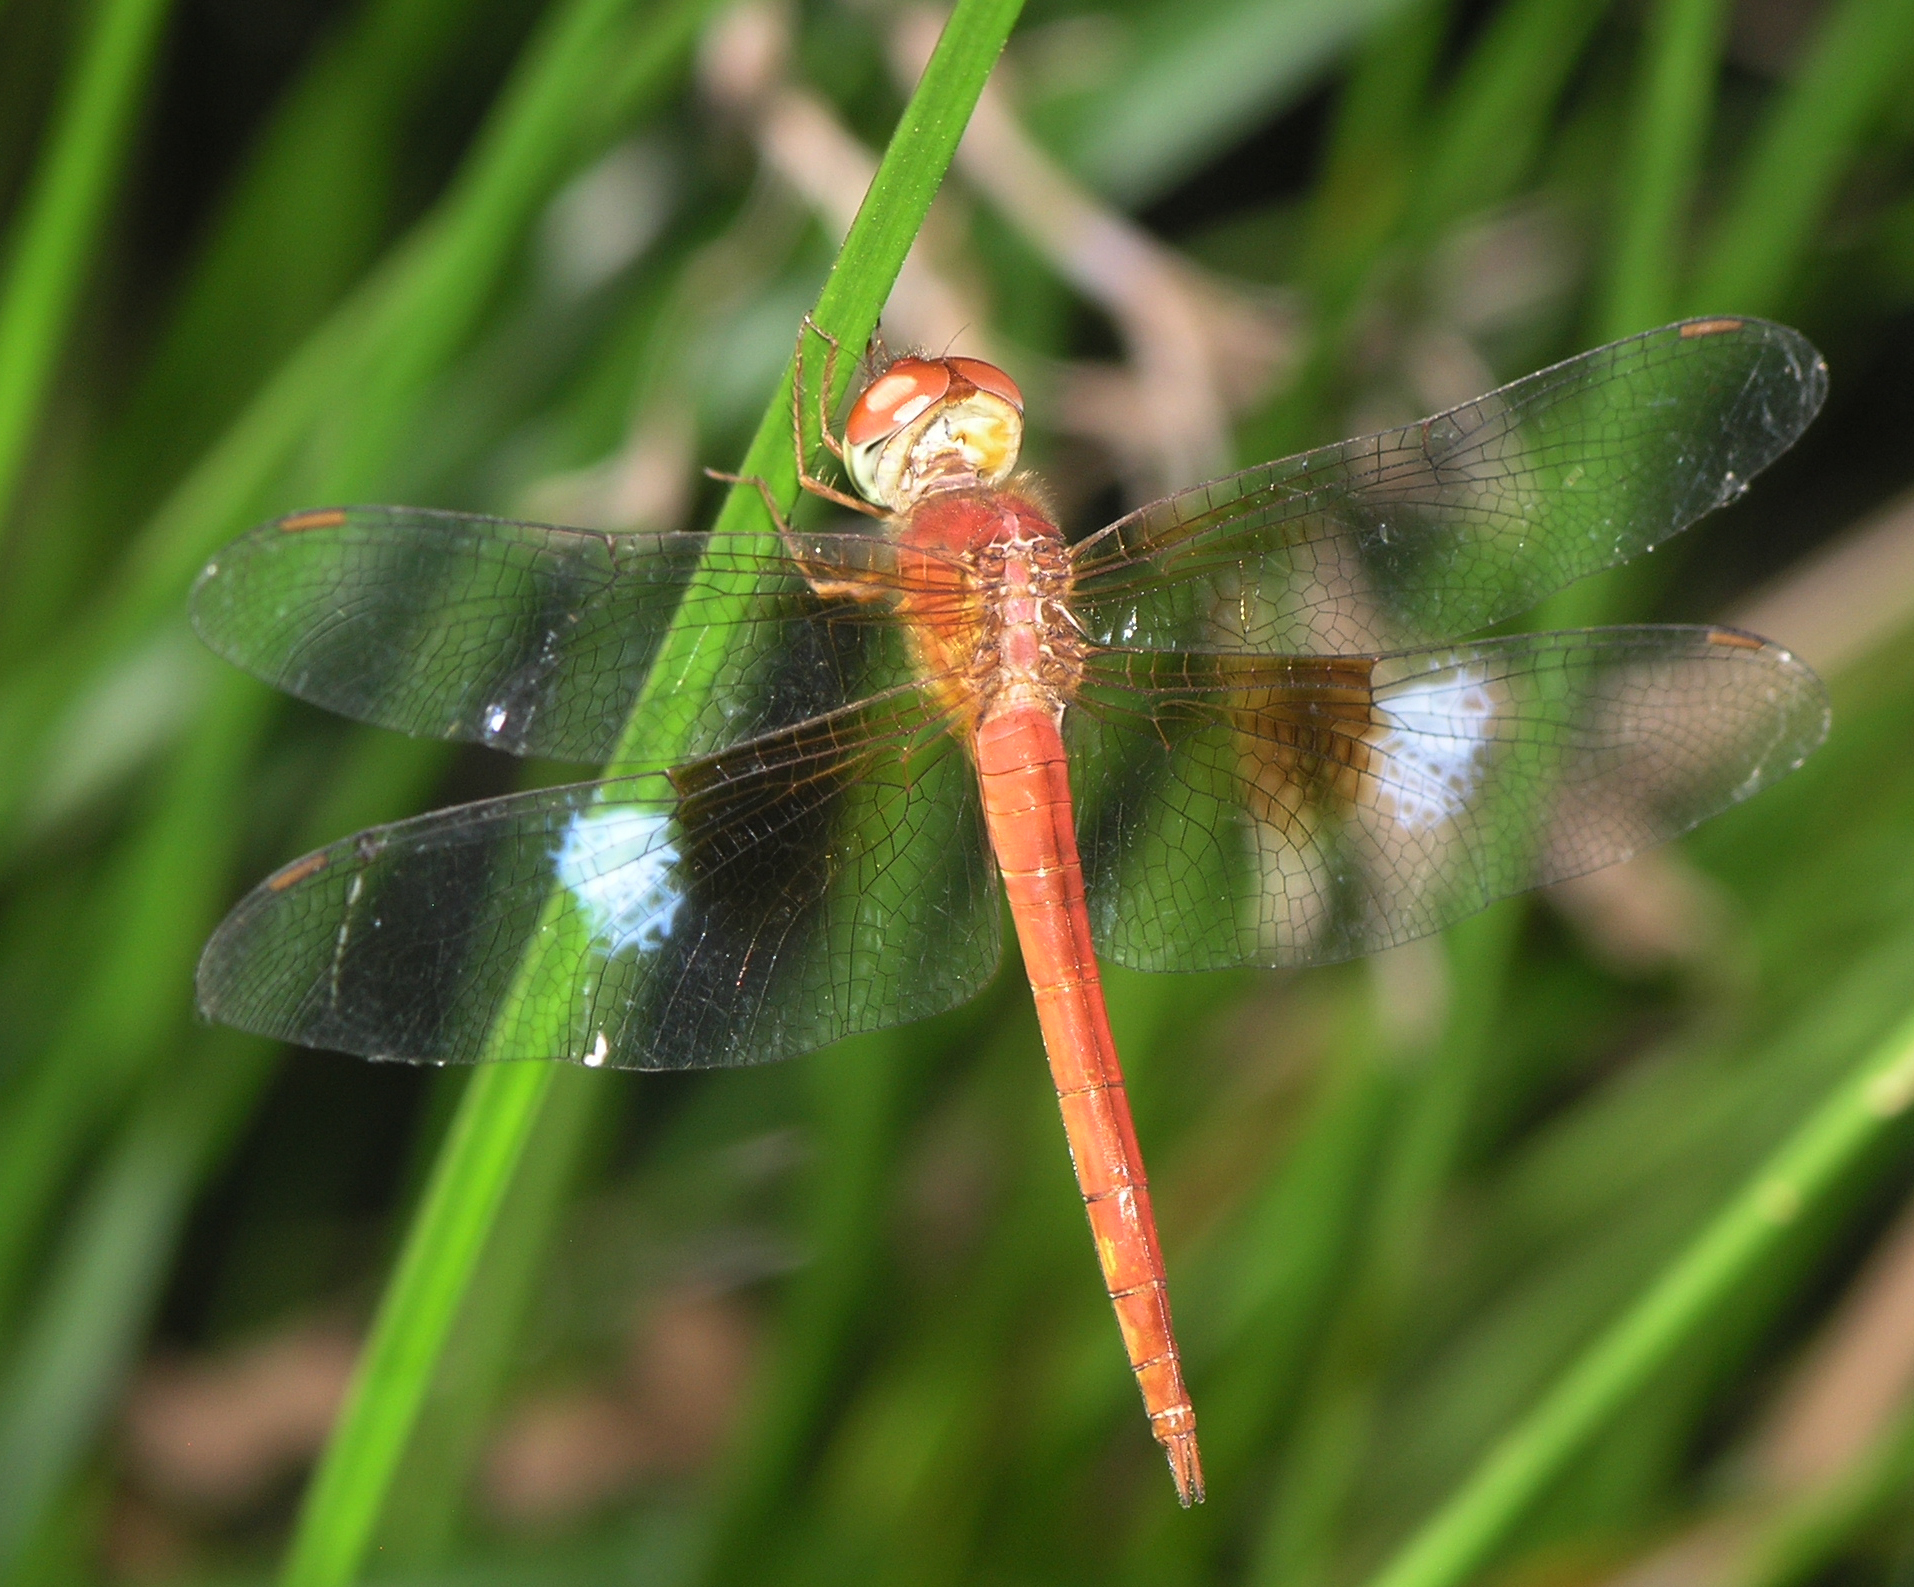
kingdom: Animalia
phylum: Arthropoda
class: Insecta
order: Odonata
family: Libellulidae
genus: Tholymis
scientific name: Tholymis tillarga
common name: Coral-tailed cloud wing
